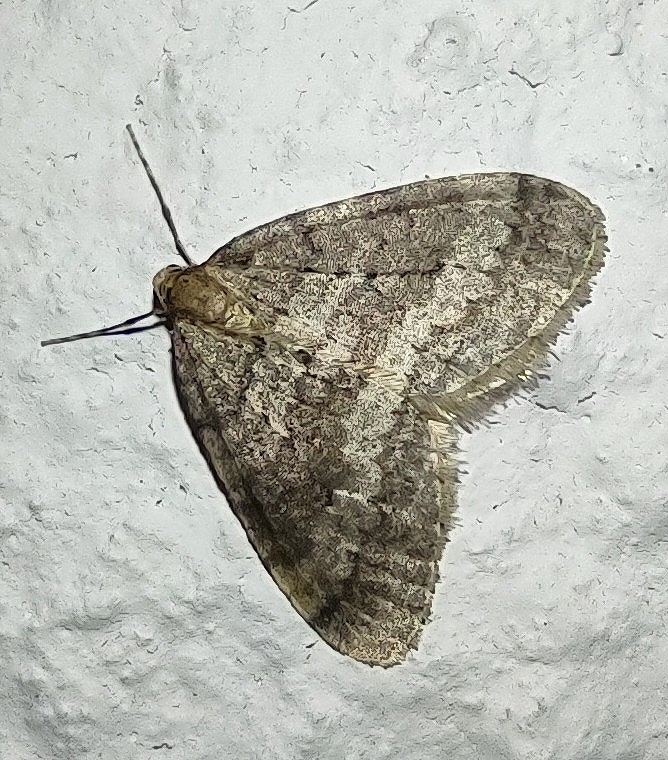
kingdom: Animalia
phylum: Arthropoda
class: Insecta
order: Lepidoptera
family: Geometridae
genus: Operophtera
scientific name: Operophtera brumata
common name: Winter moth
